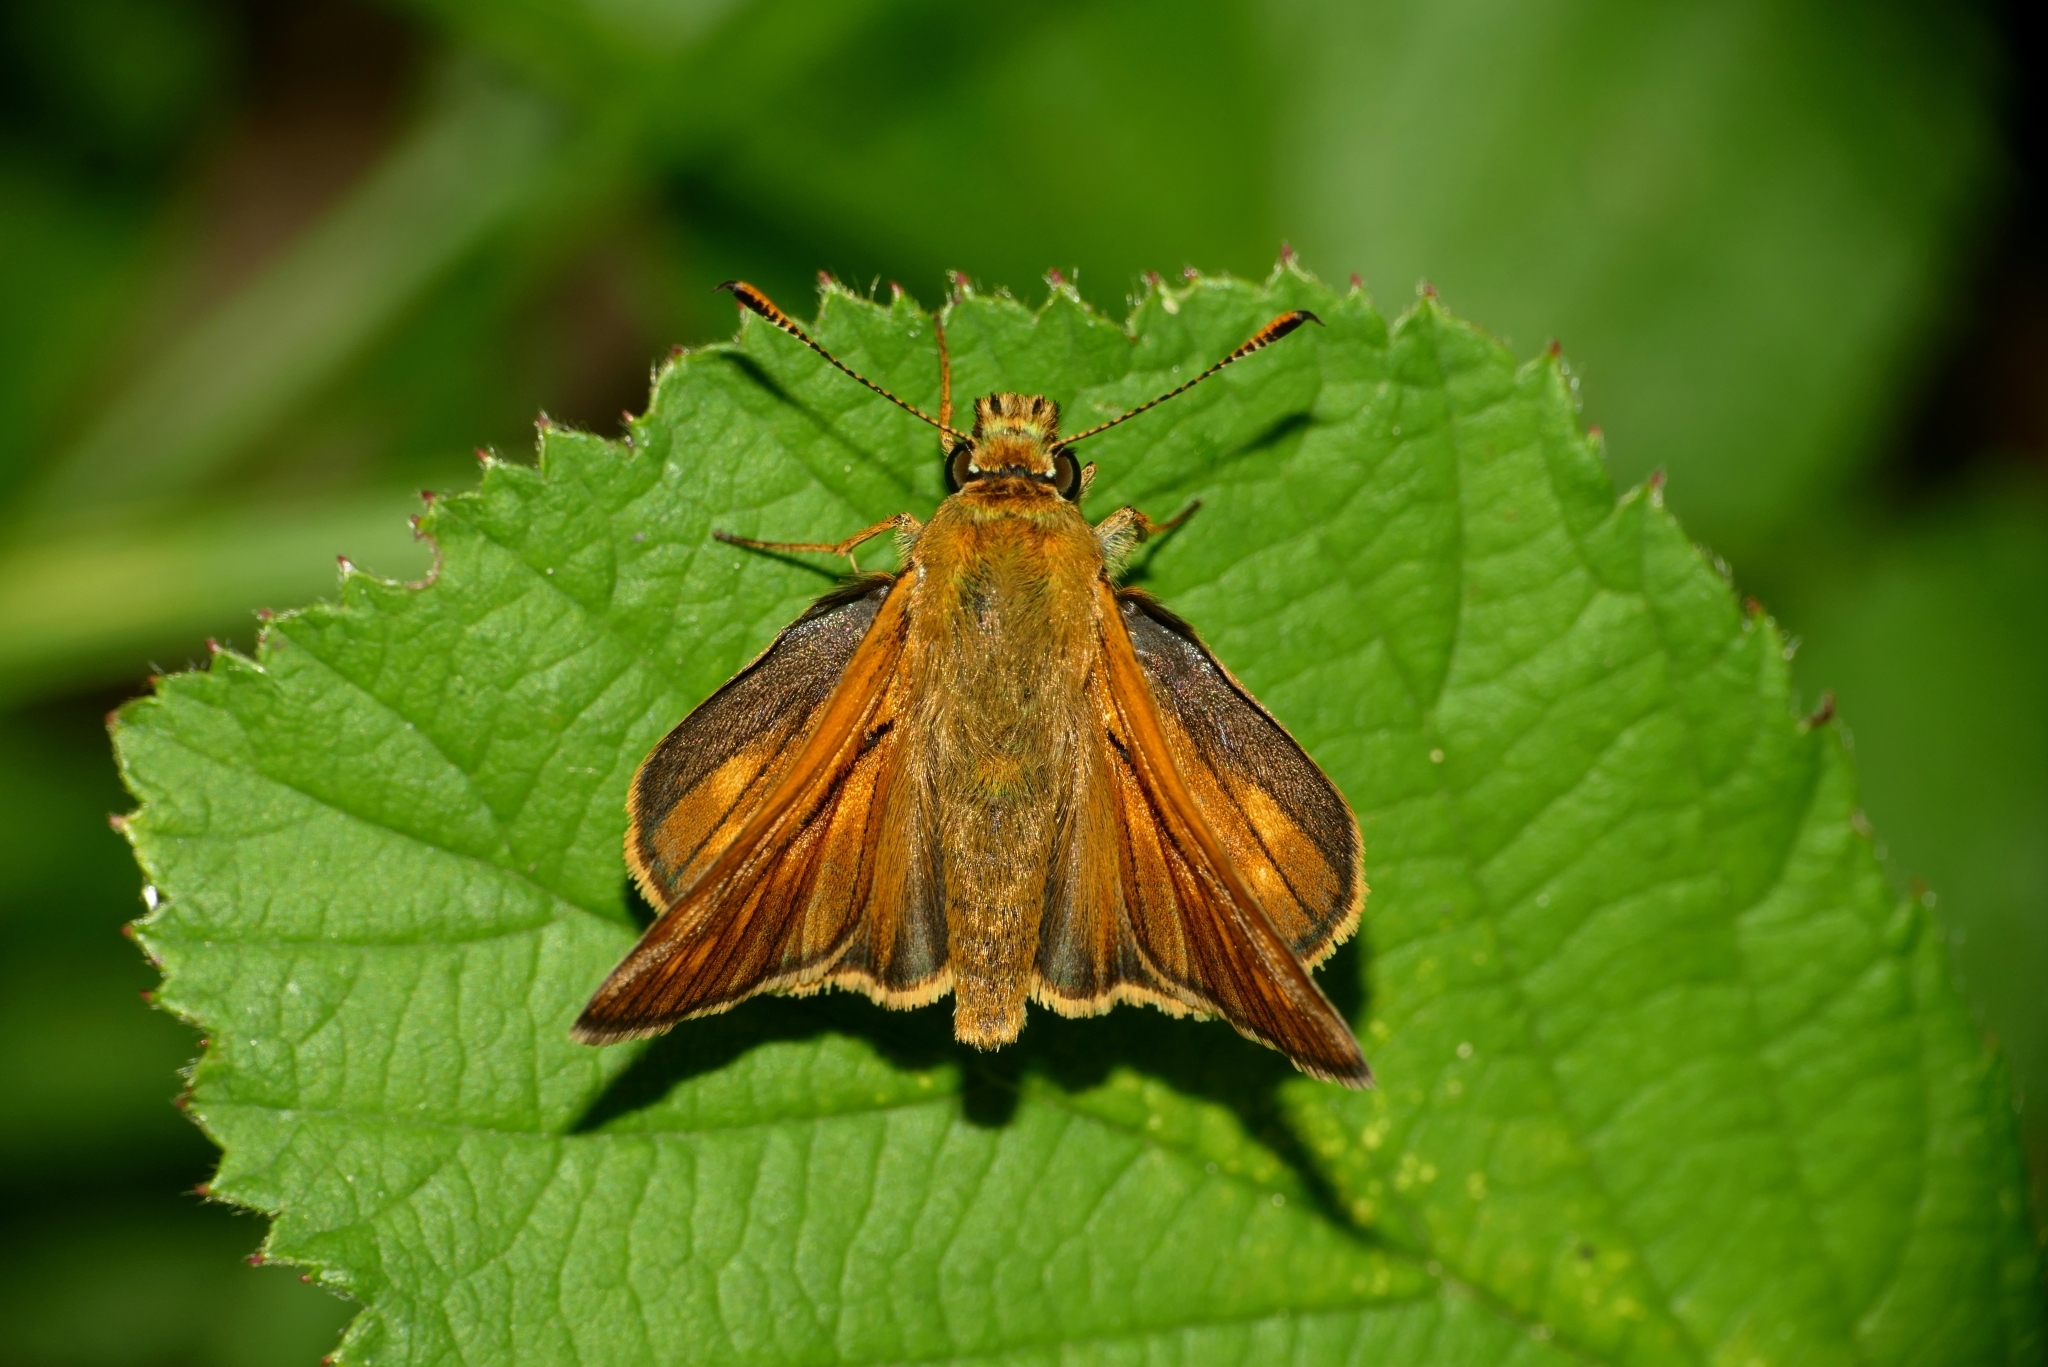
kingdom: Animalia
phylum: Arthropoda
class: Insecta
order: Lepidoptera
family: Hesperiidae
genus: Ochlodes
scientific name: Ochlodes venata
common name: Large skipper
